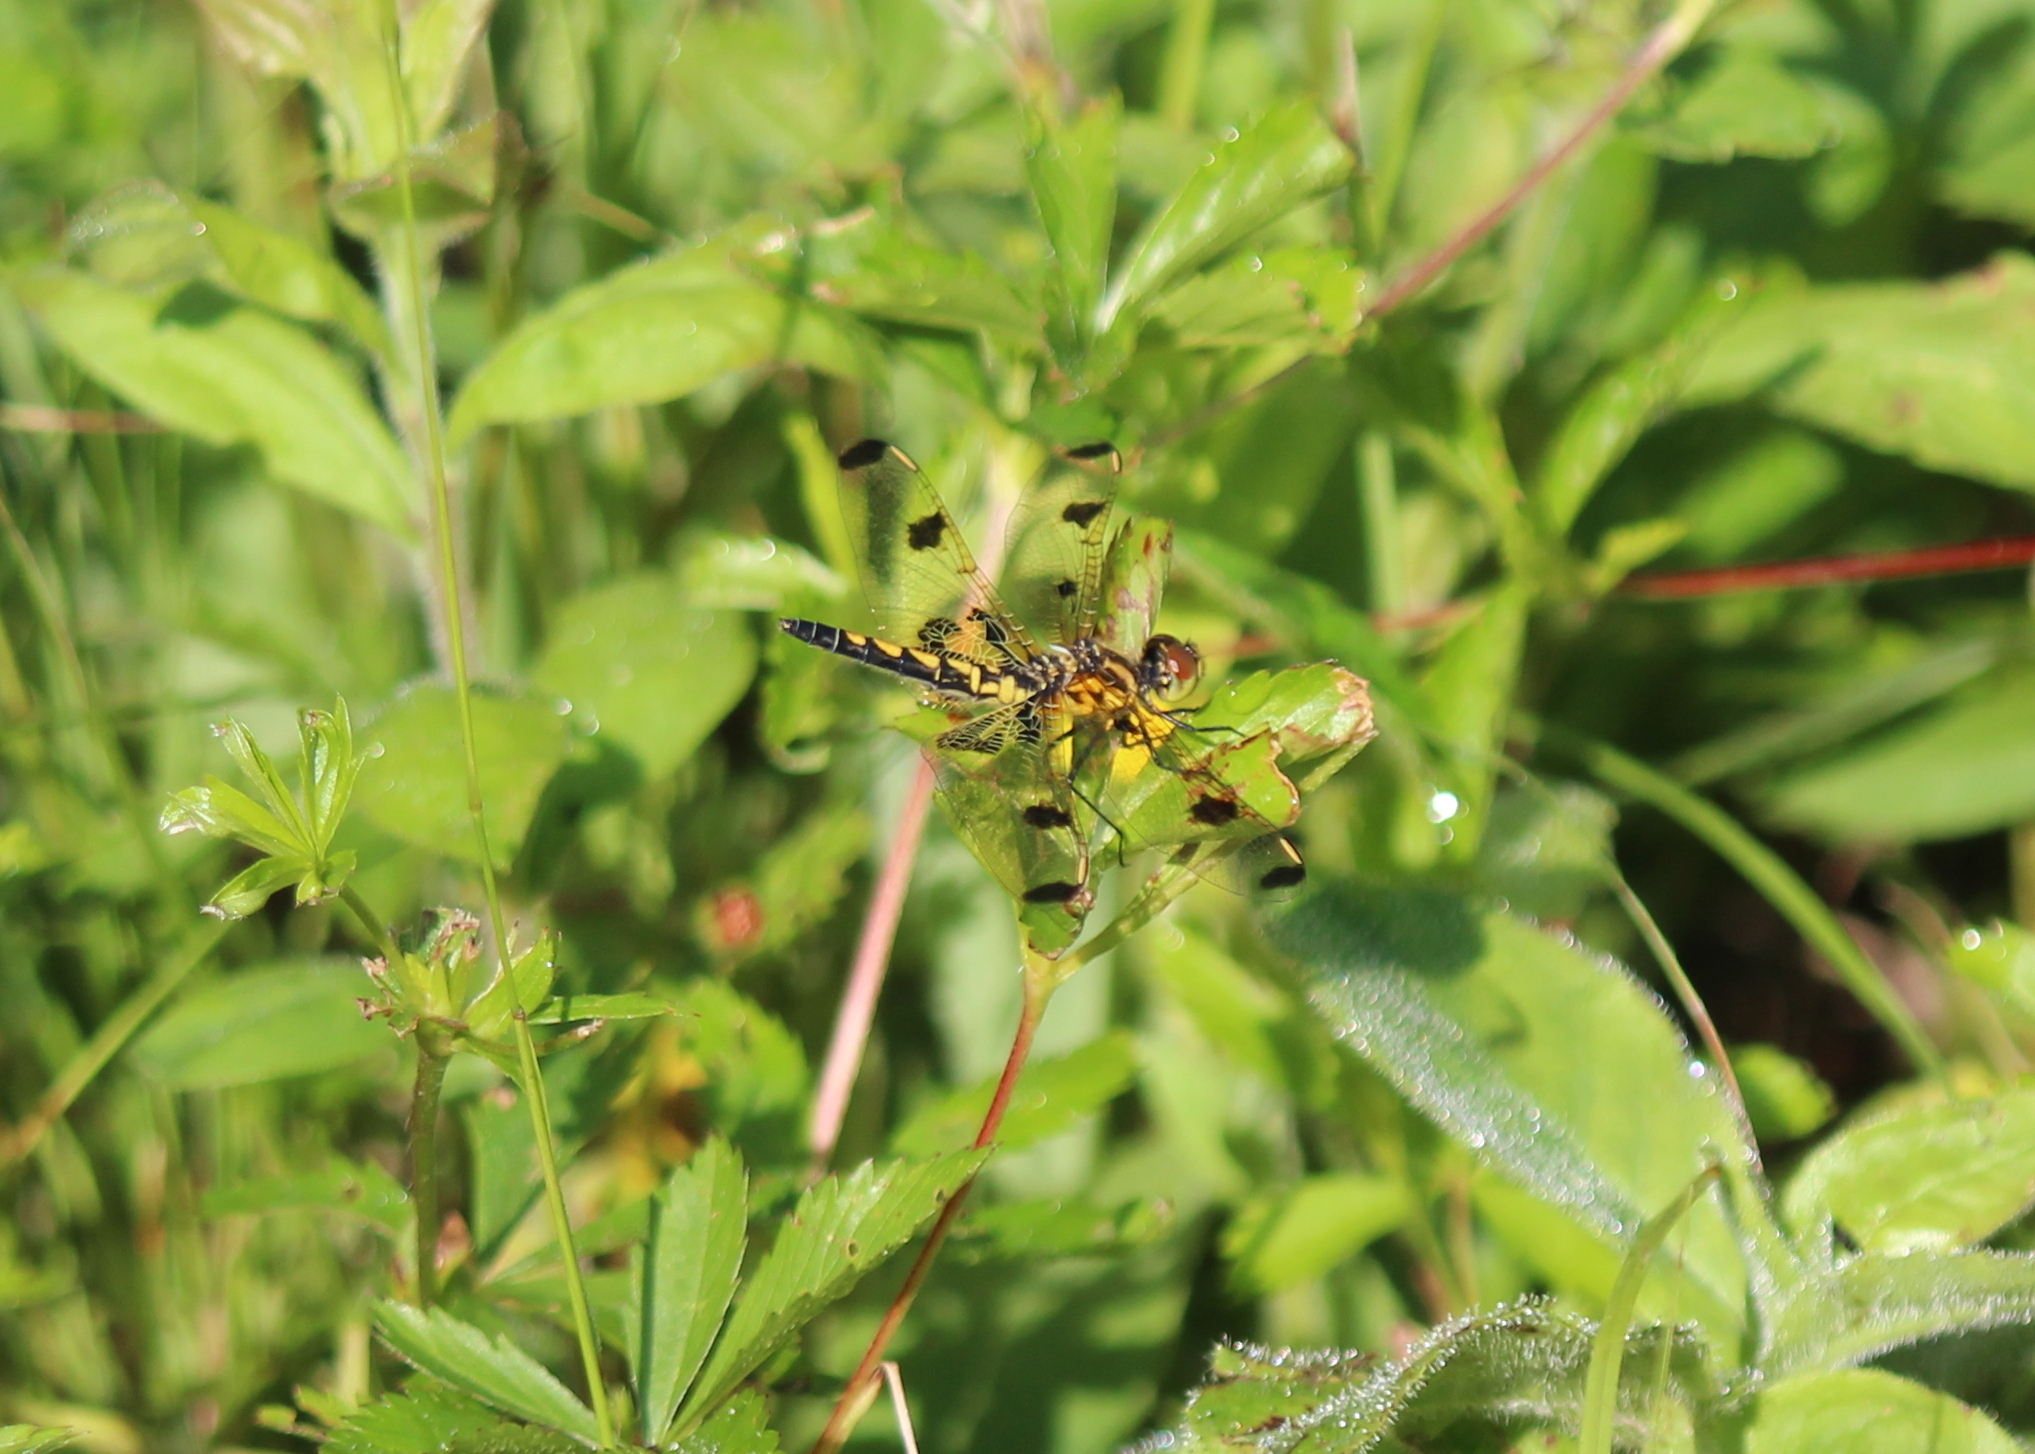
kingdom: Animalia
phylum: Arthropoda
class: Insecta
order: Odonata
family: Libellulidae
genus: Celithemis
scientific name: Celithemis elisa
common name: Calico pennant
